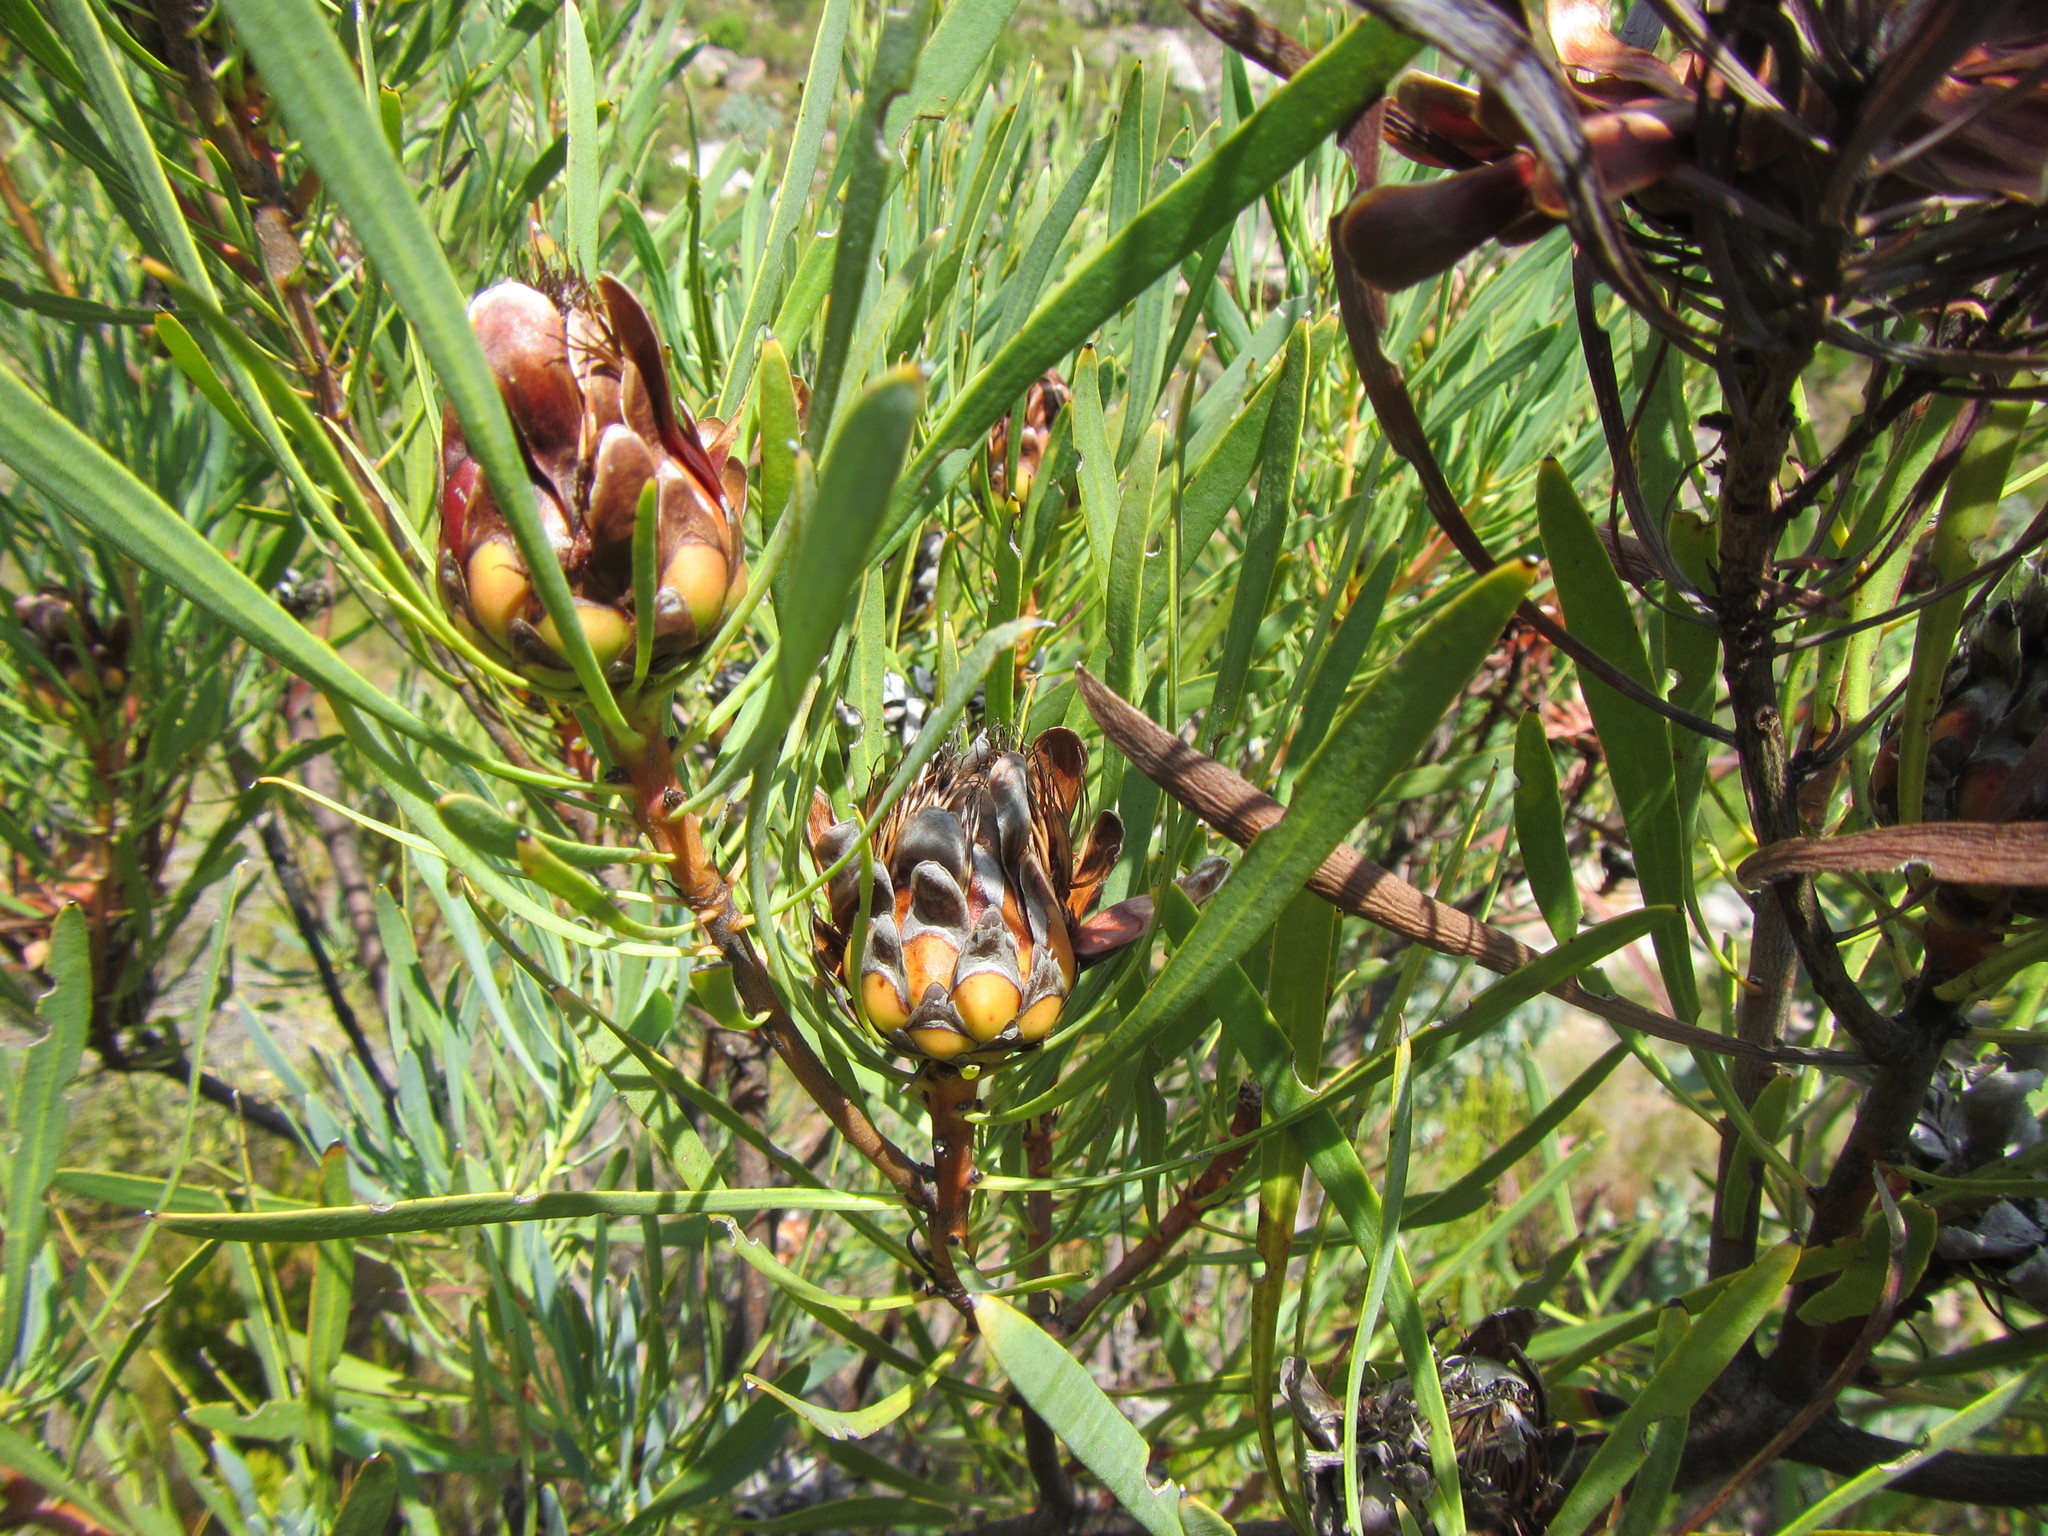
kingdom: Plantae
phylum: Tracheophyta
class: Magnoliopsida
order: Proteales
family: Proteaceae
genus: Protea
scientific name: Protea acuminata
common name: Black-rim sugarbush
